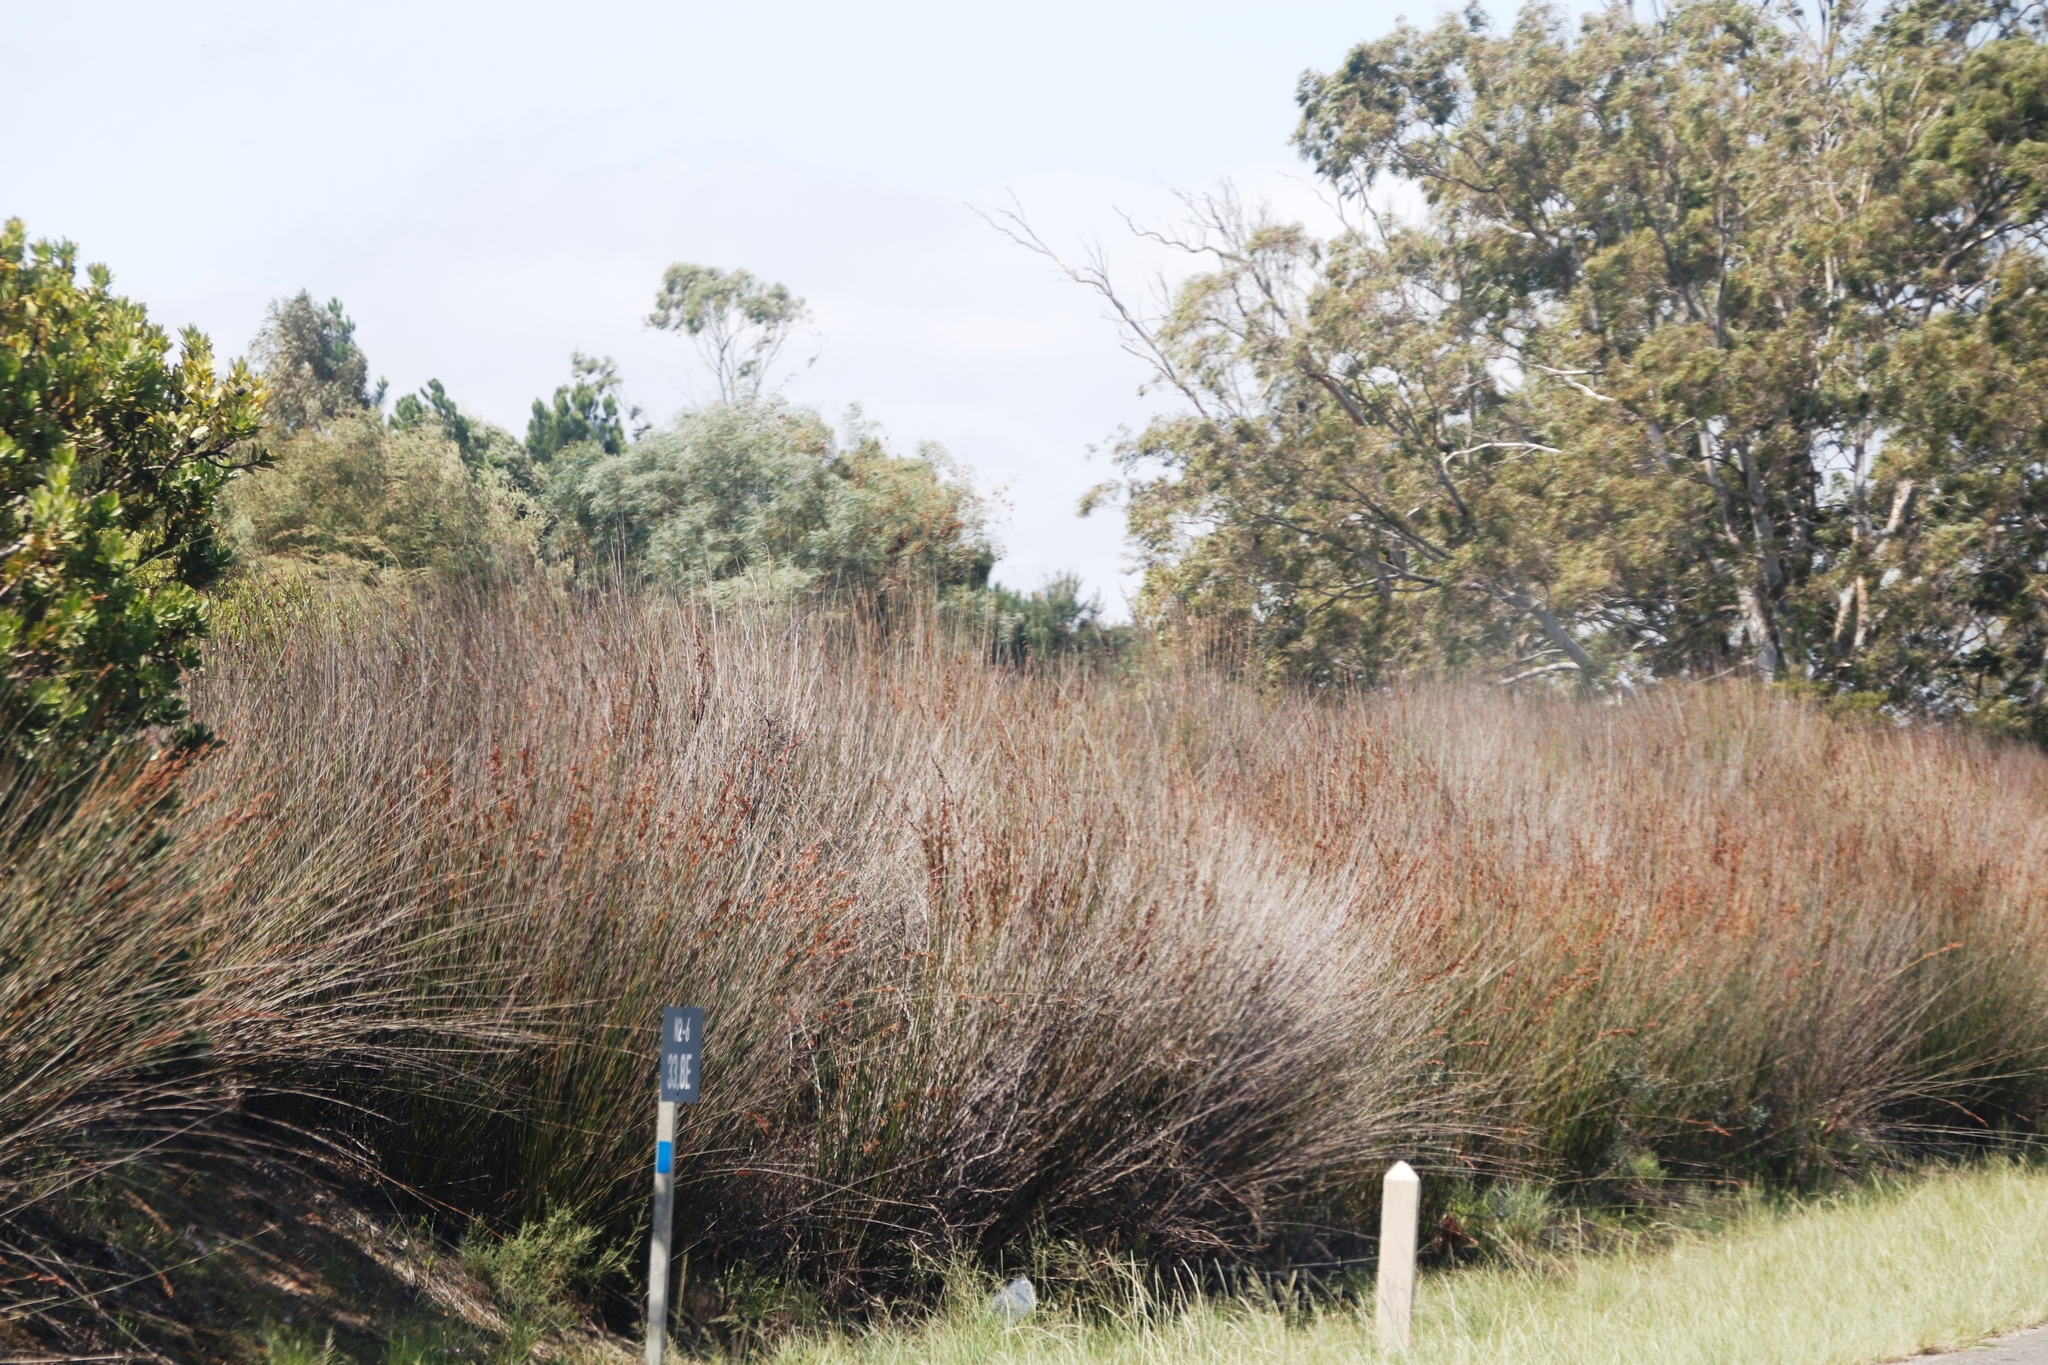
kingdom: Plantae
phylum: Tracheophyta
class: Liliopsida
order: Poales
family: Restionaceae
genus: Thamnochortus
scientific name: Thamnochortus insignis
